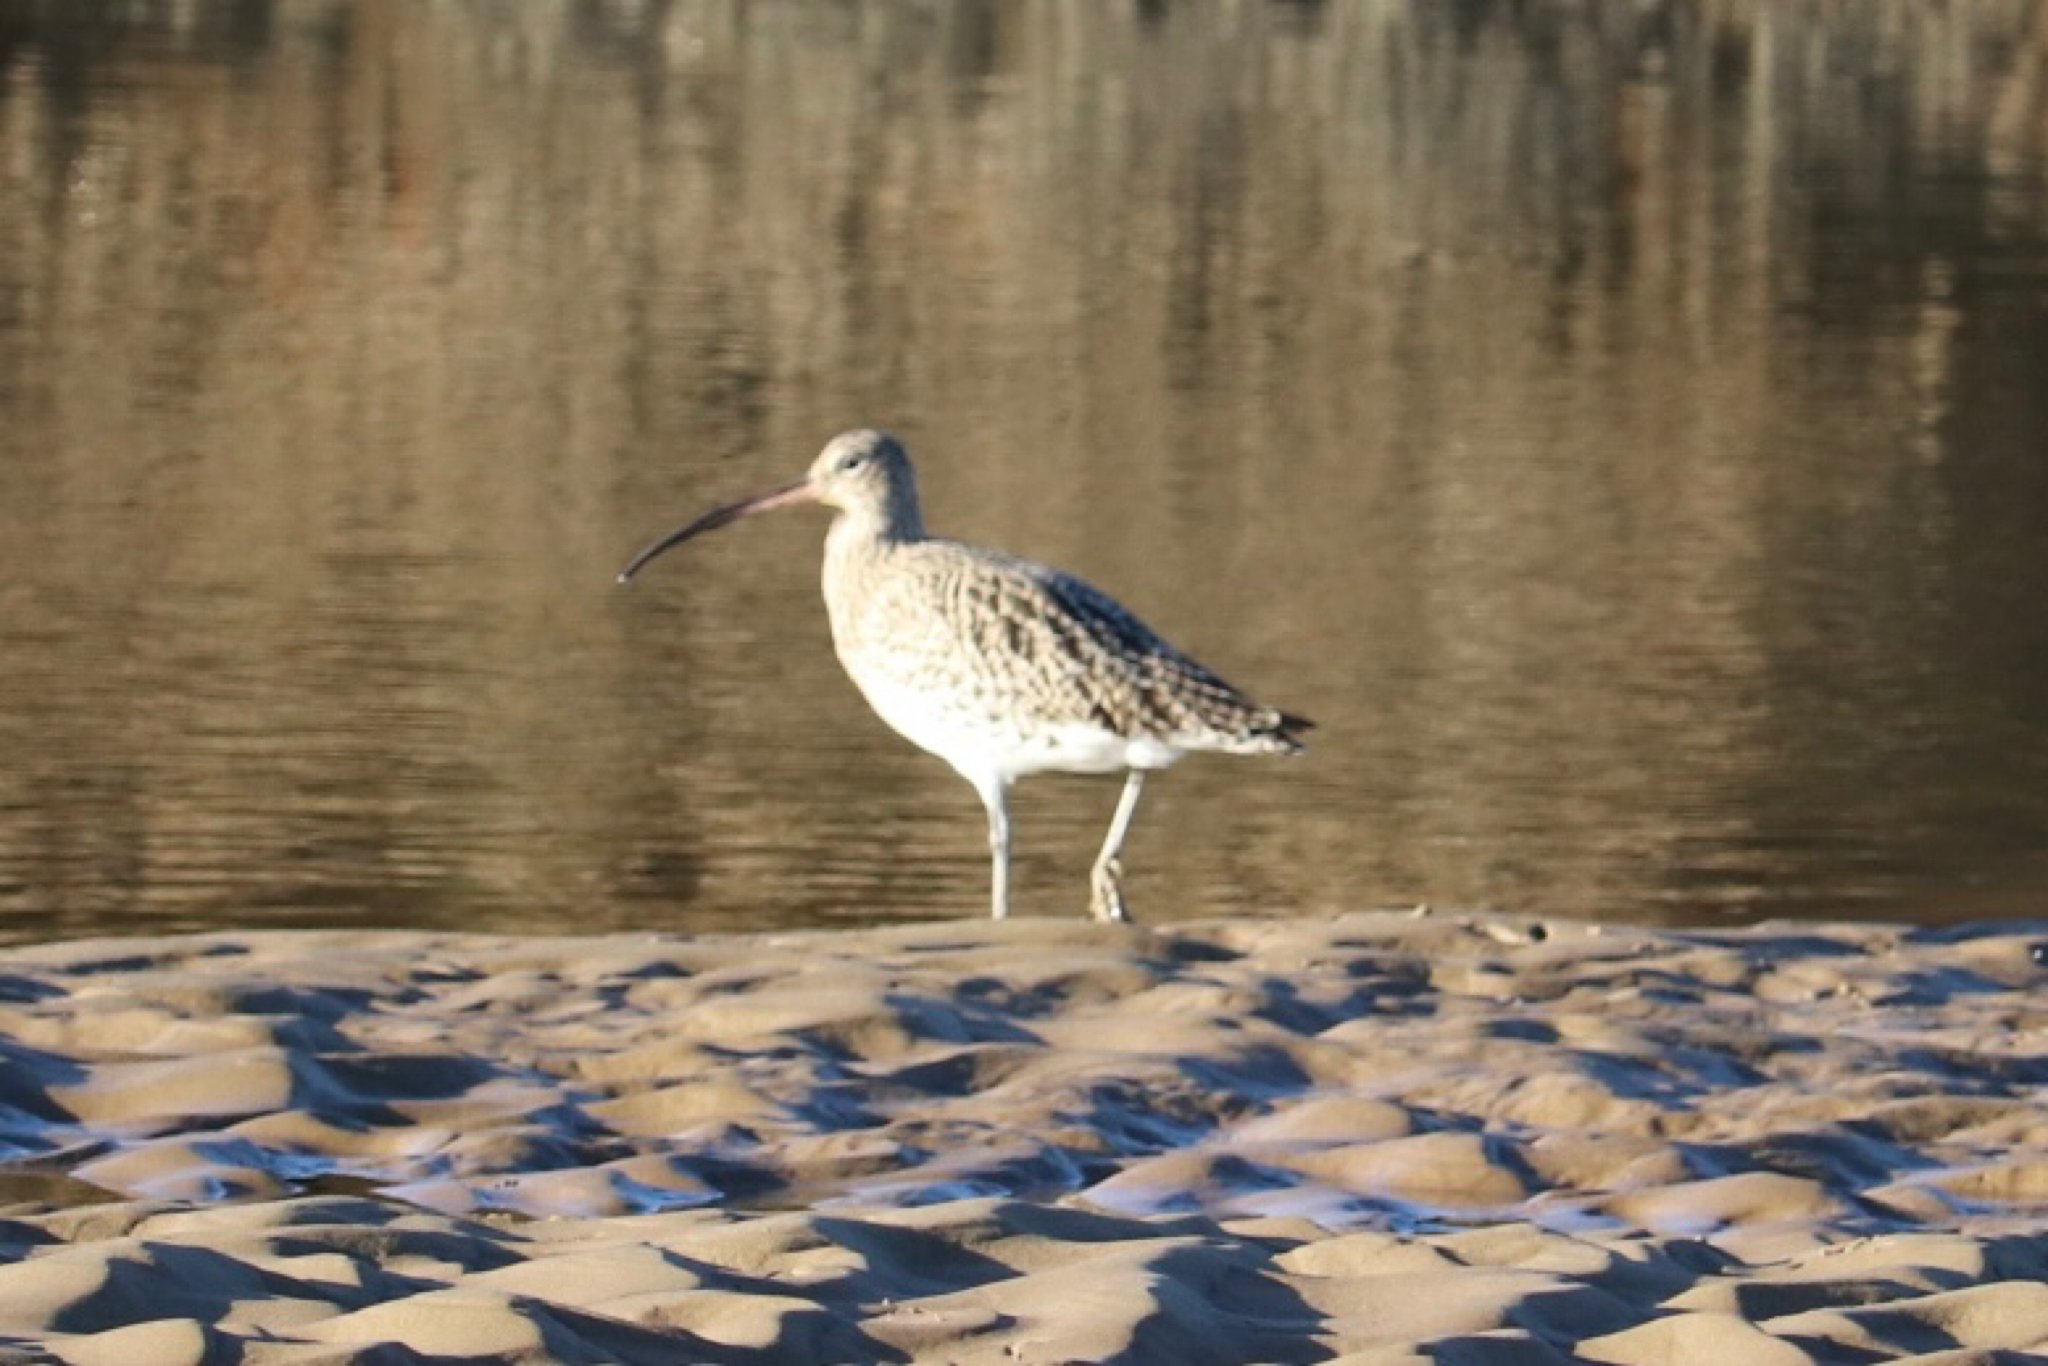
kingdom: Animalia
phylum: Chordata
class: Aves
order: Charadriiformes
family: Scolopacidae
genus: Numenius
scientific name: Numenius arquata
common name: Eurasian curlew
